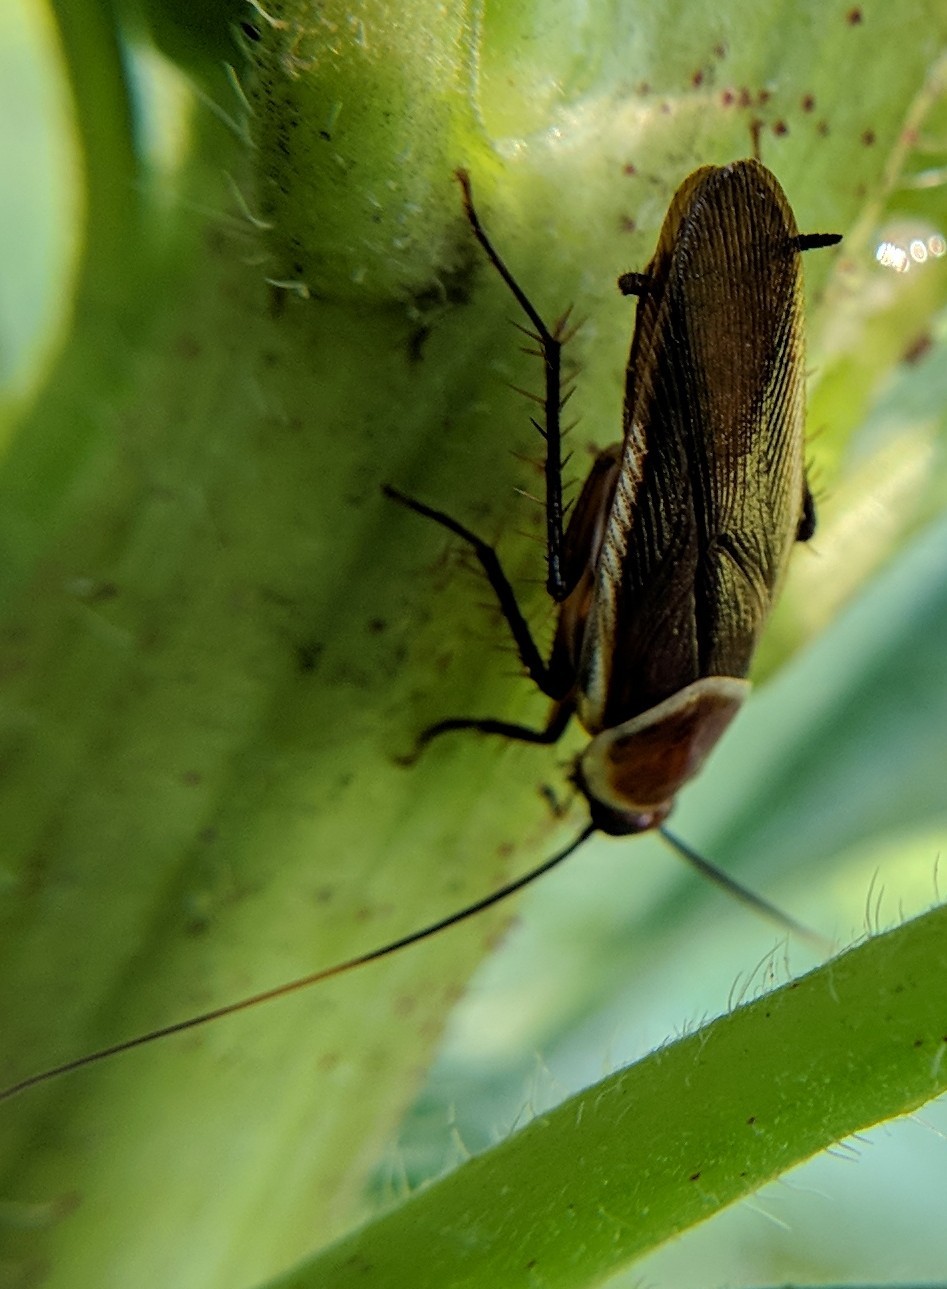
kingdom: Animalia
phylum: Arthropoda
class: Insecta
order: Blattodea
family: Ectobiidae
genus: Pseudomops
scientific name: Pseudomops septentrionalis
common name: Pale-bordered field cockroach
